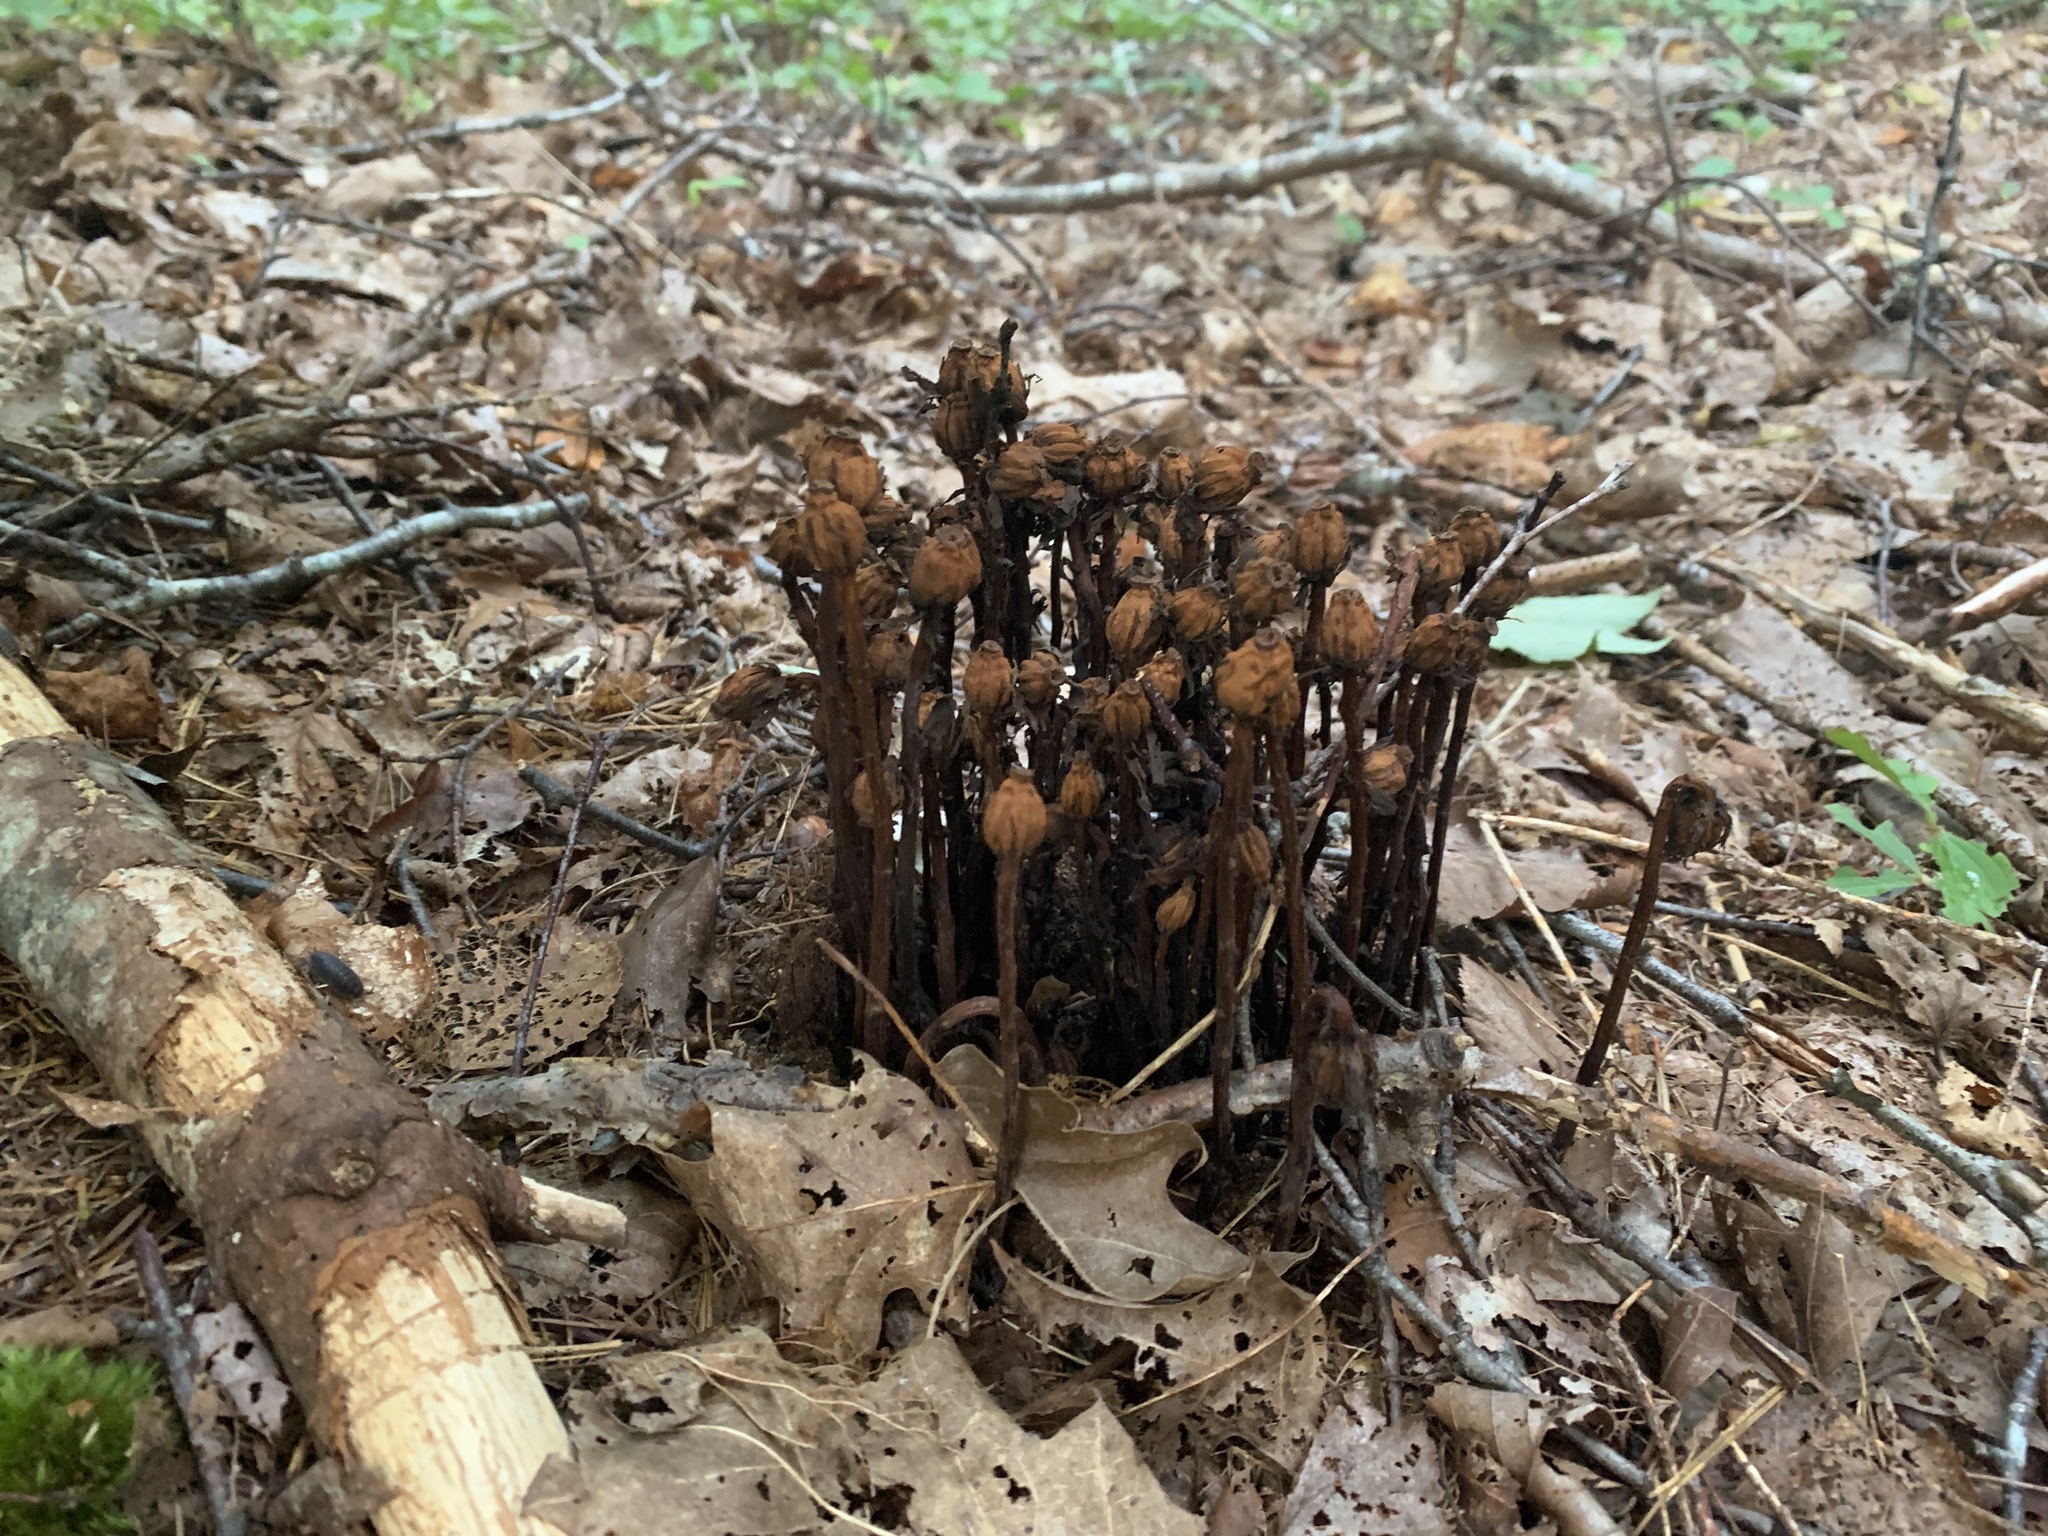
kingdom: Plantae
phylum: Tracheophyta
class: Magnoliopsida
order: Ericales
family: Ericaceae
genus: Monotropa
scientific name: Monotropa uniflora
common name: Convulsion root
